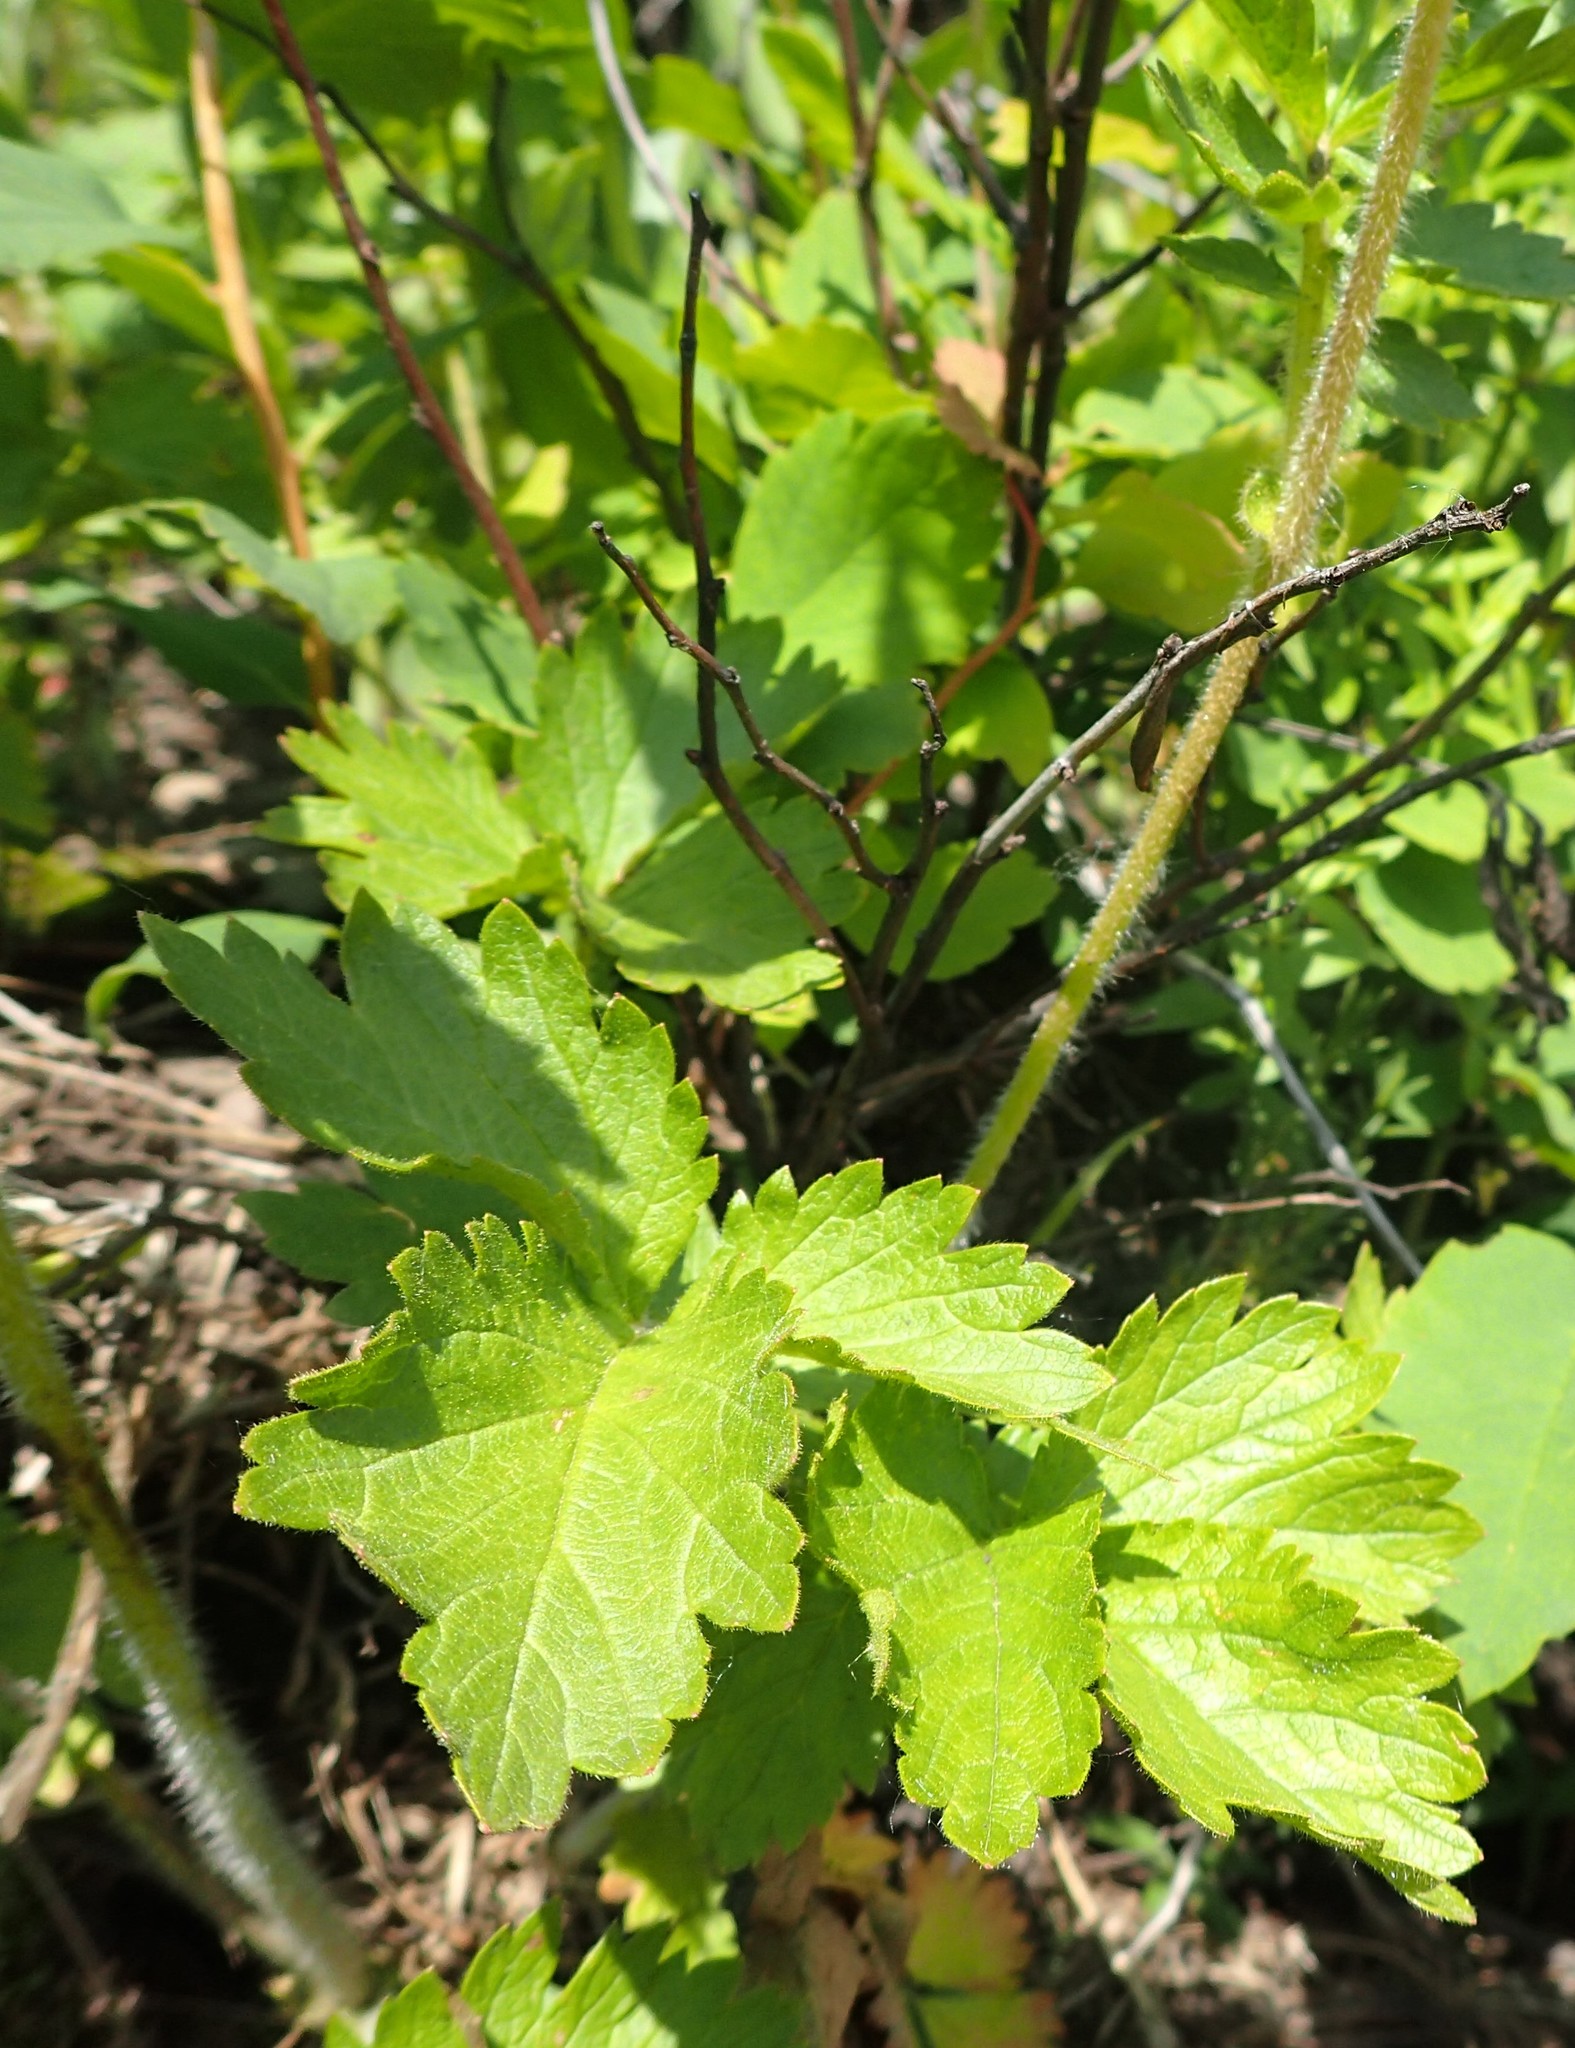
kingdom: Plantae
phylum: Tracheophyta
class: Magnoliopsida
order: Rosales
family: Rosaceae
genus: Drymocallis
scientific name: Drymocallis arguta
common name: Tall cinquefoil
